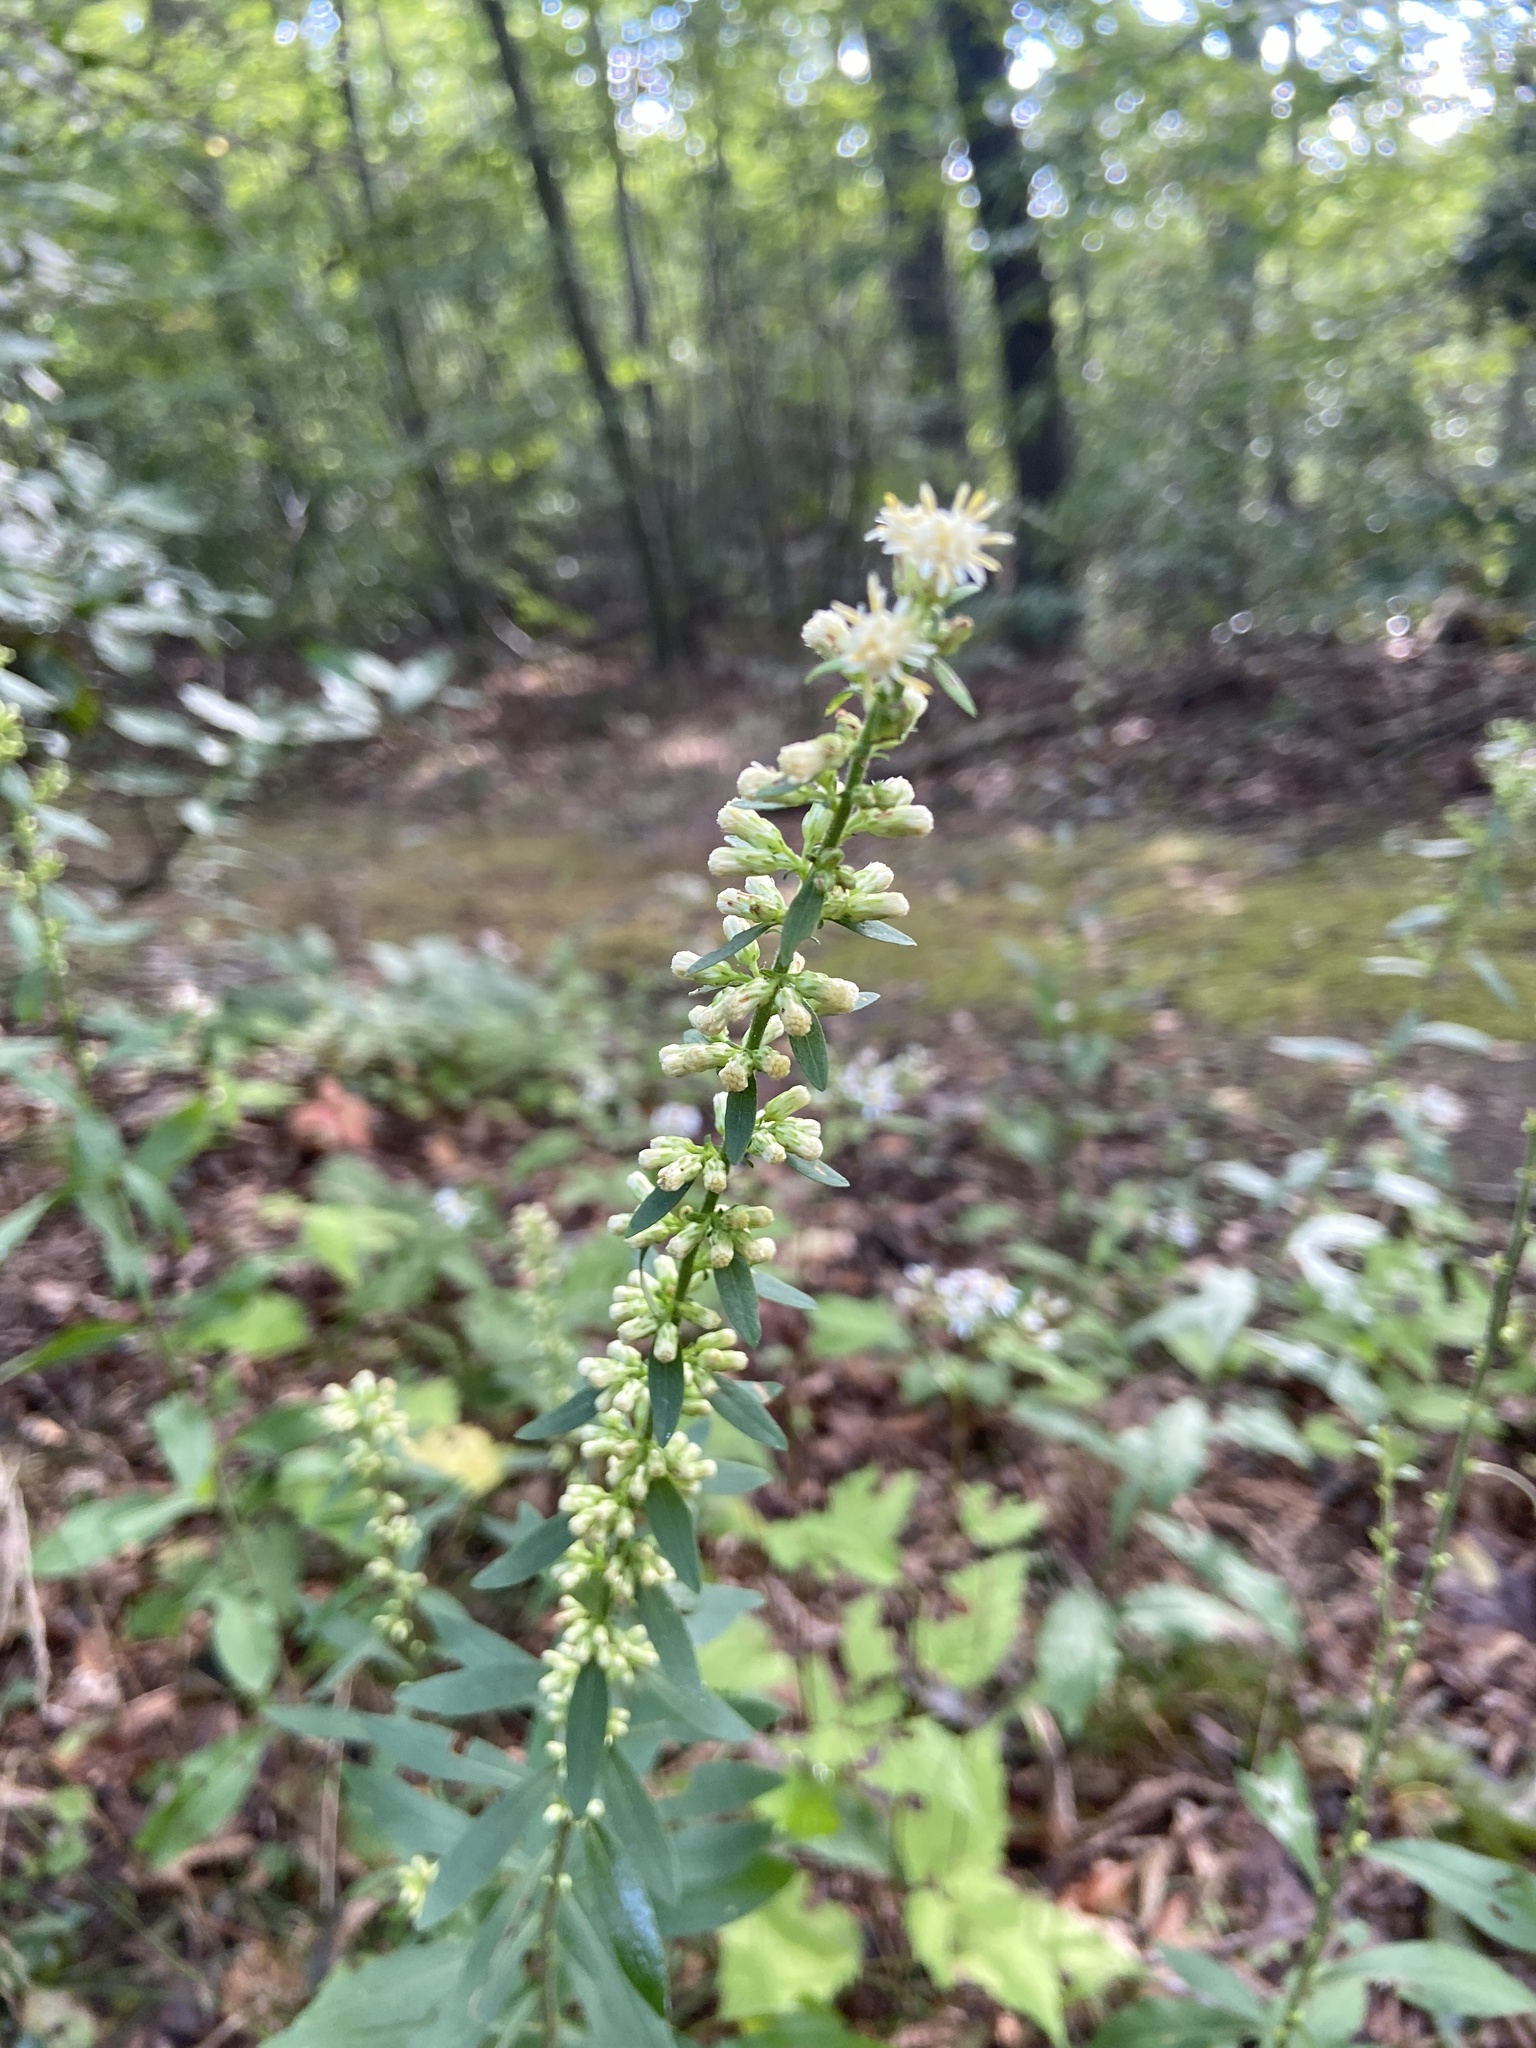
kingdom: Plantae
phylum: Tracheophyta
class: Magnoliopsida
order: Asterales
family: Asteraceae
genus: Solidago
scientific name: Solidago bicolor
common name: Silverrod
